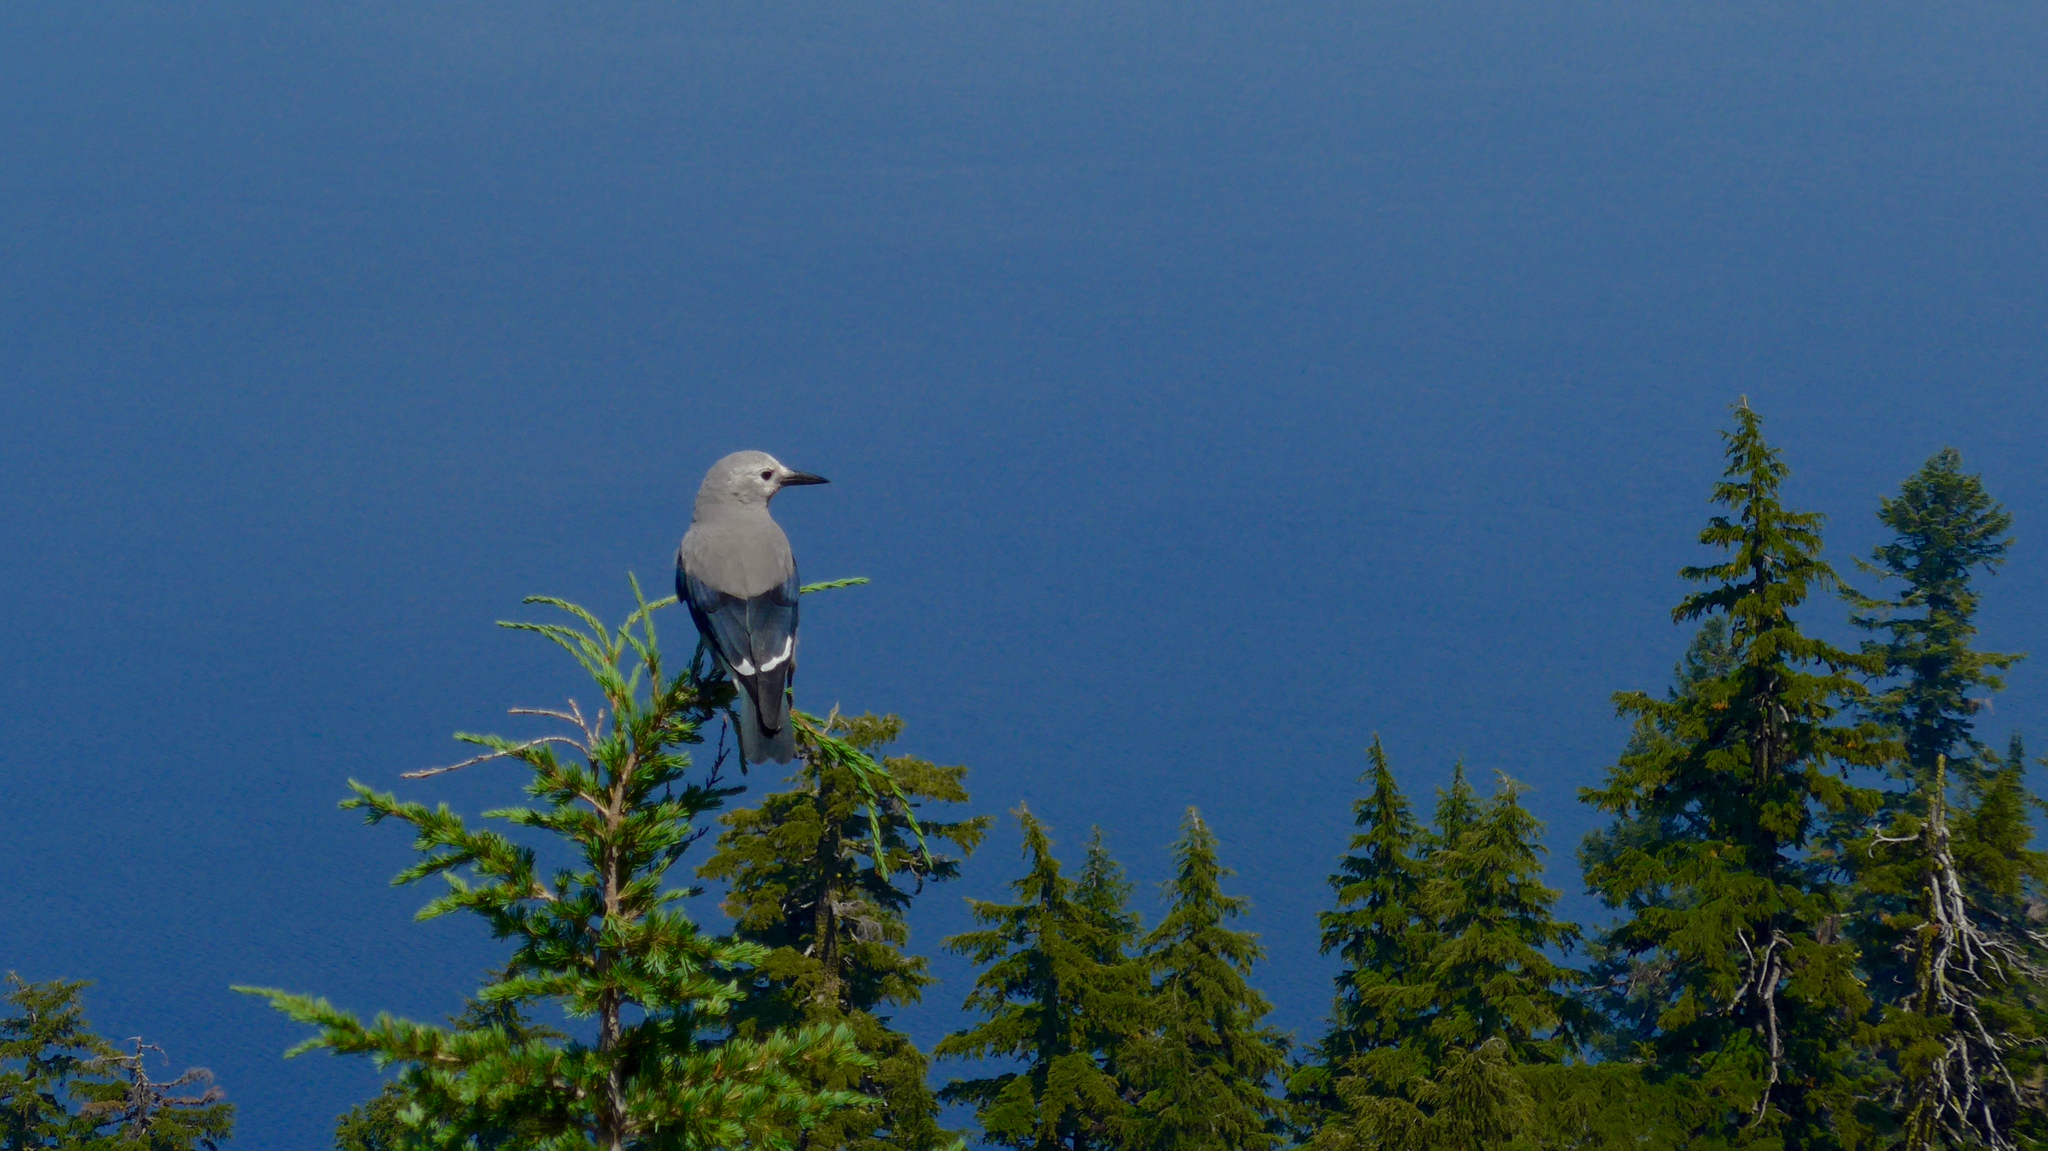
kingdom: Animalia
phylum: Chordata
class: Aves
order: Passeriformes
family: Corvidae
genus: Nucifraga
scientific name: Nucifraga columbiana
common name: Clark's nutcracker
